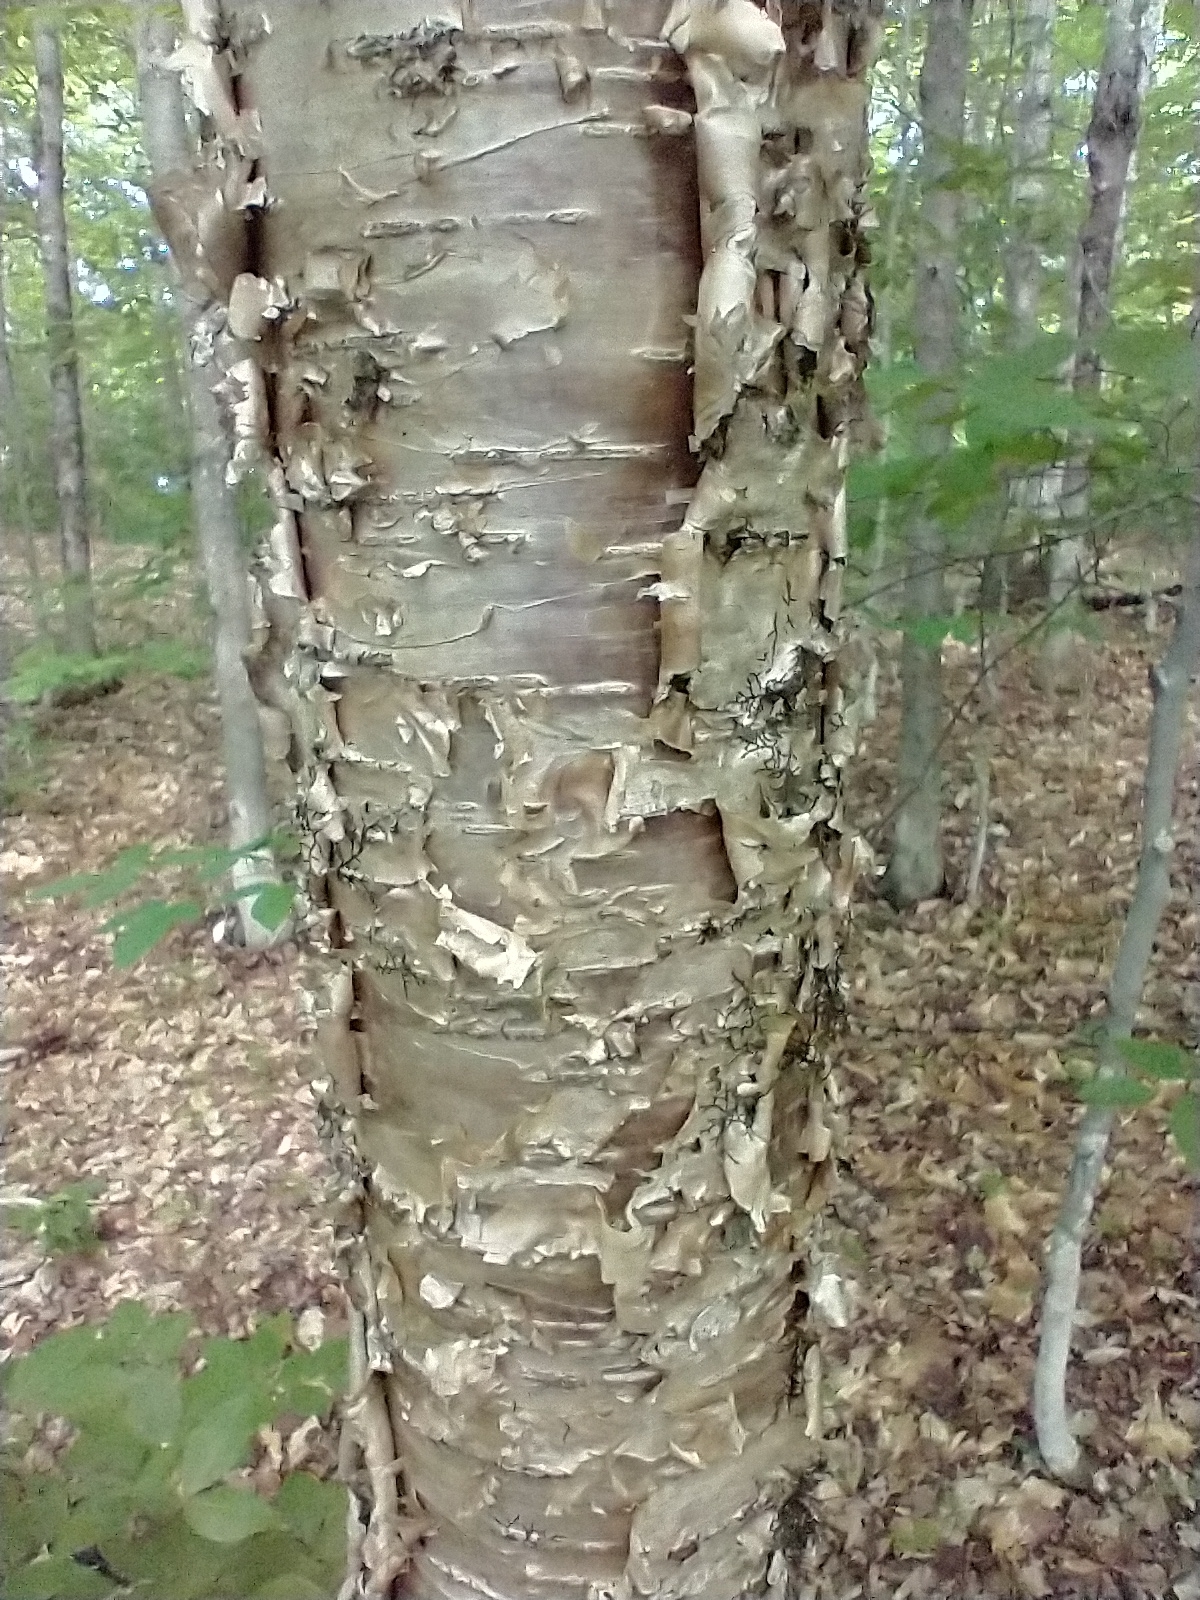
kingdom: Plantae
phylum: Tracheophyta
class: Magnoliopsida
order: Fagales
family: Betulaceae
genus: Betula
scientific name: Betula alleghaniensis
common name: Yellow birch
